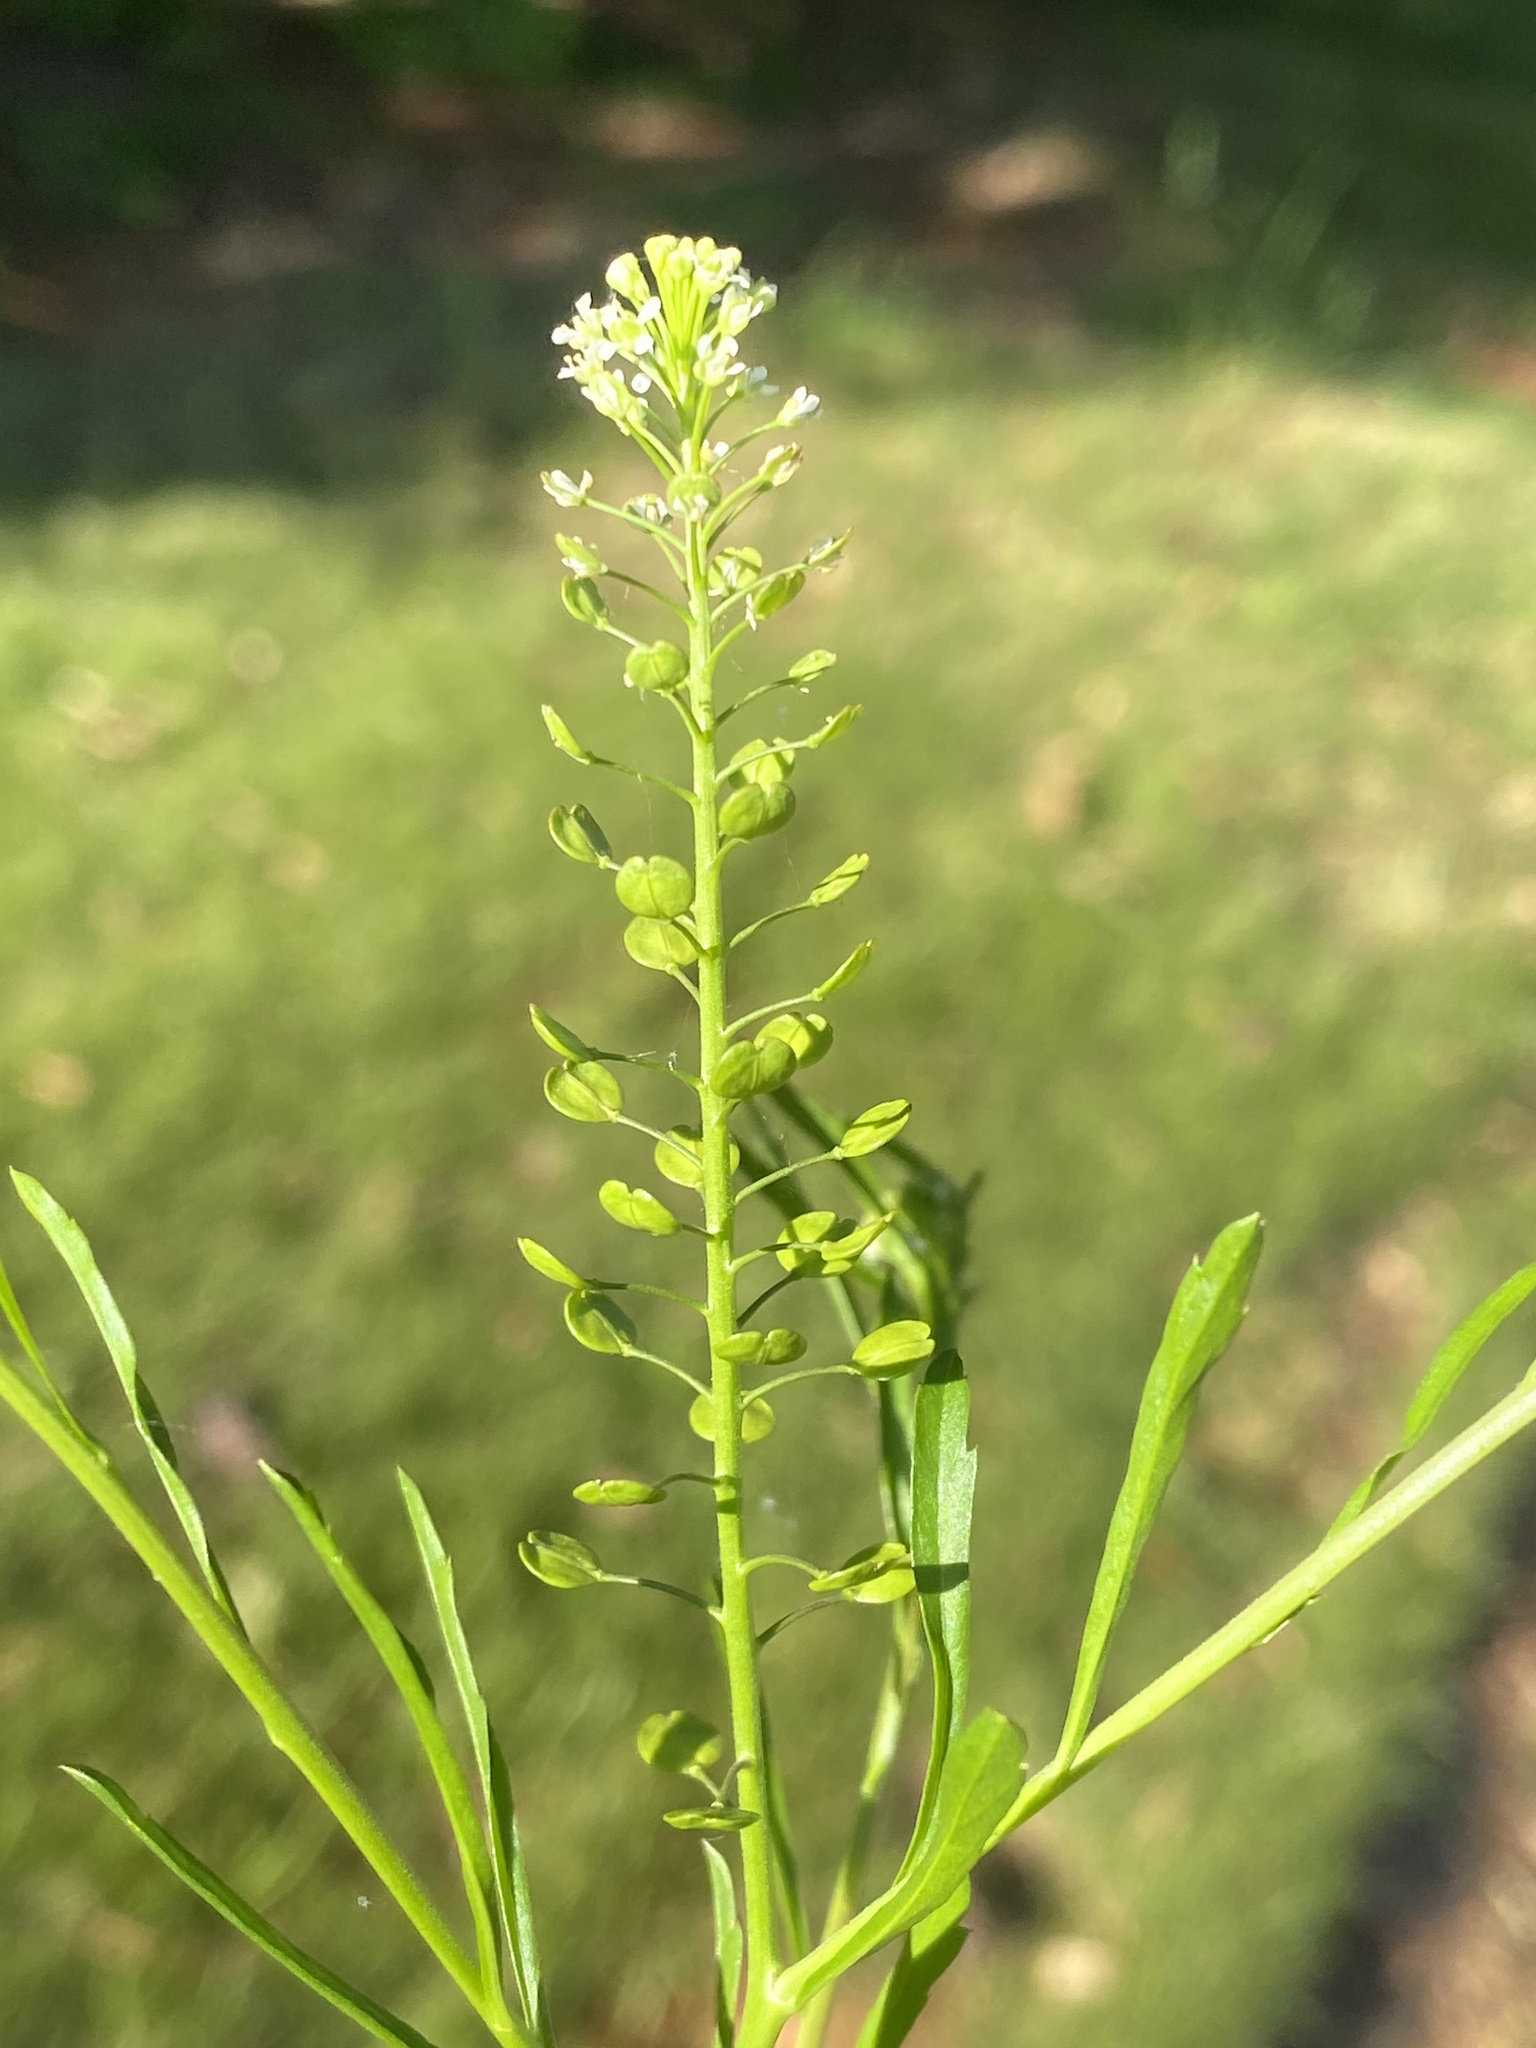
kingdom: Plantae
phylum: Tracheophyta
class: Magnoliopsida
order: Brassicales
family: Brassicaceae
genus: Lepidium
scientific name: Lepidium virginicum
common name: Least pepperwort
